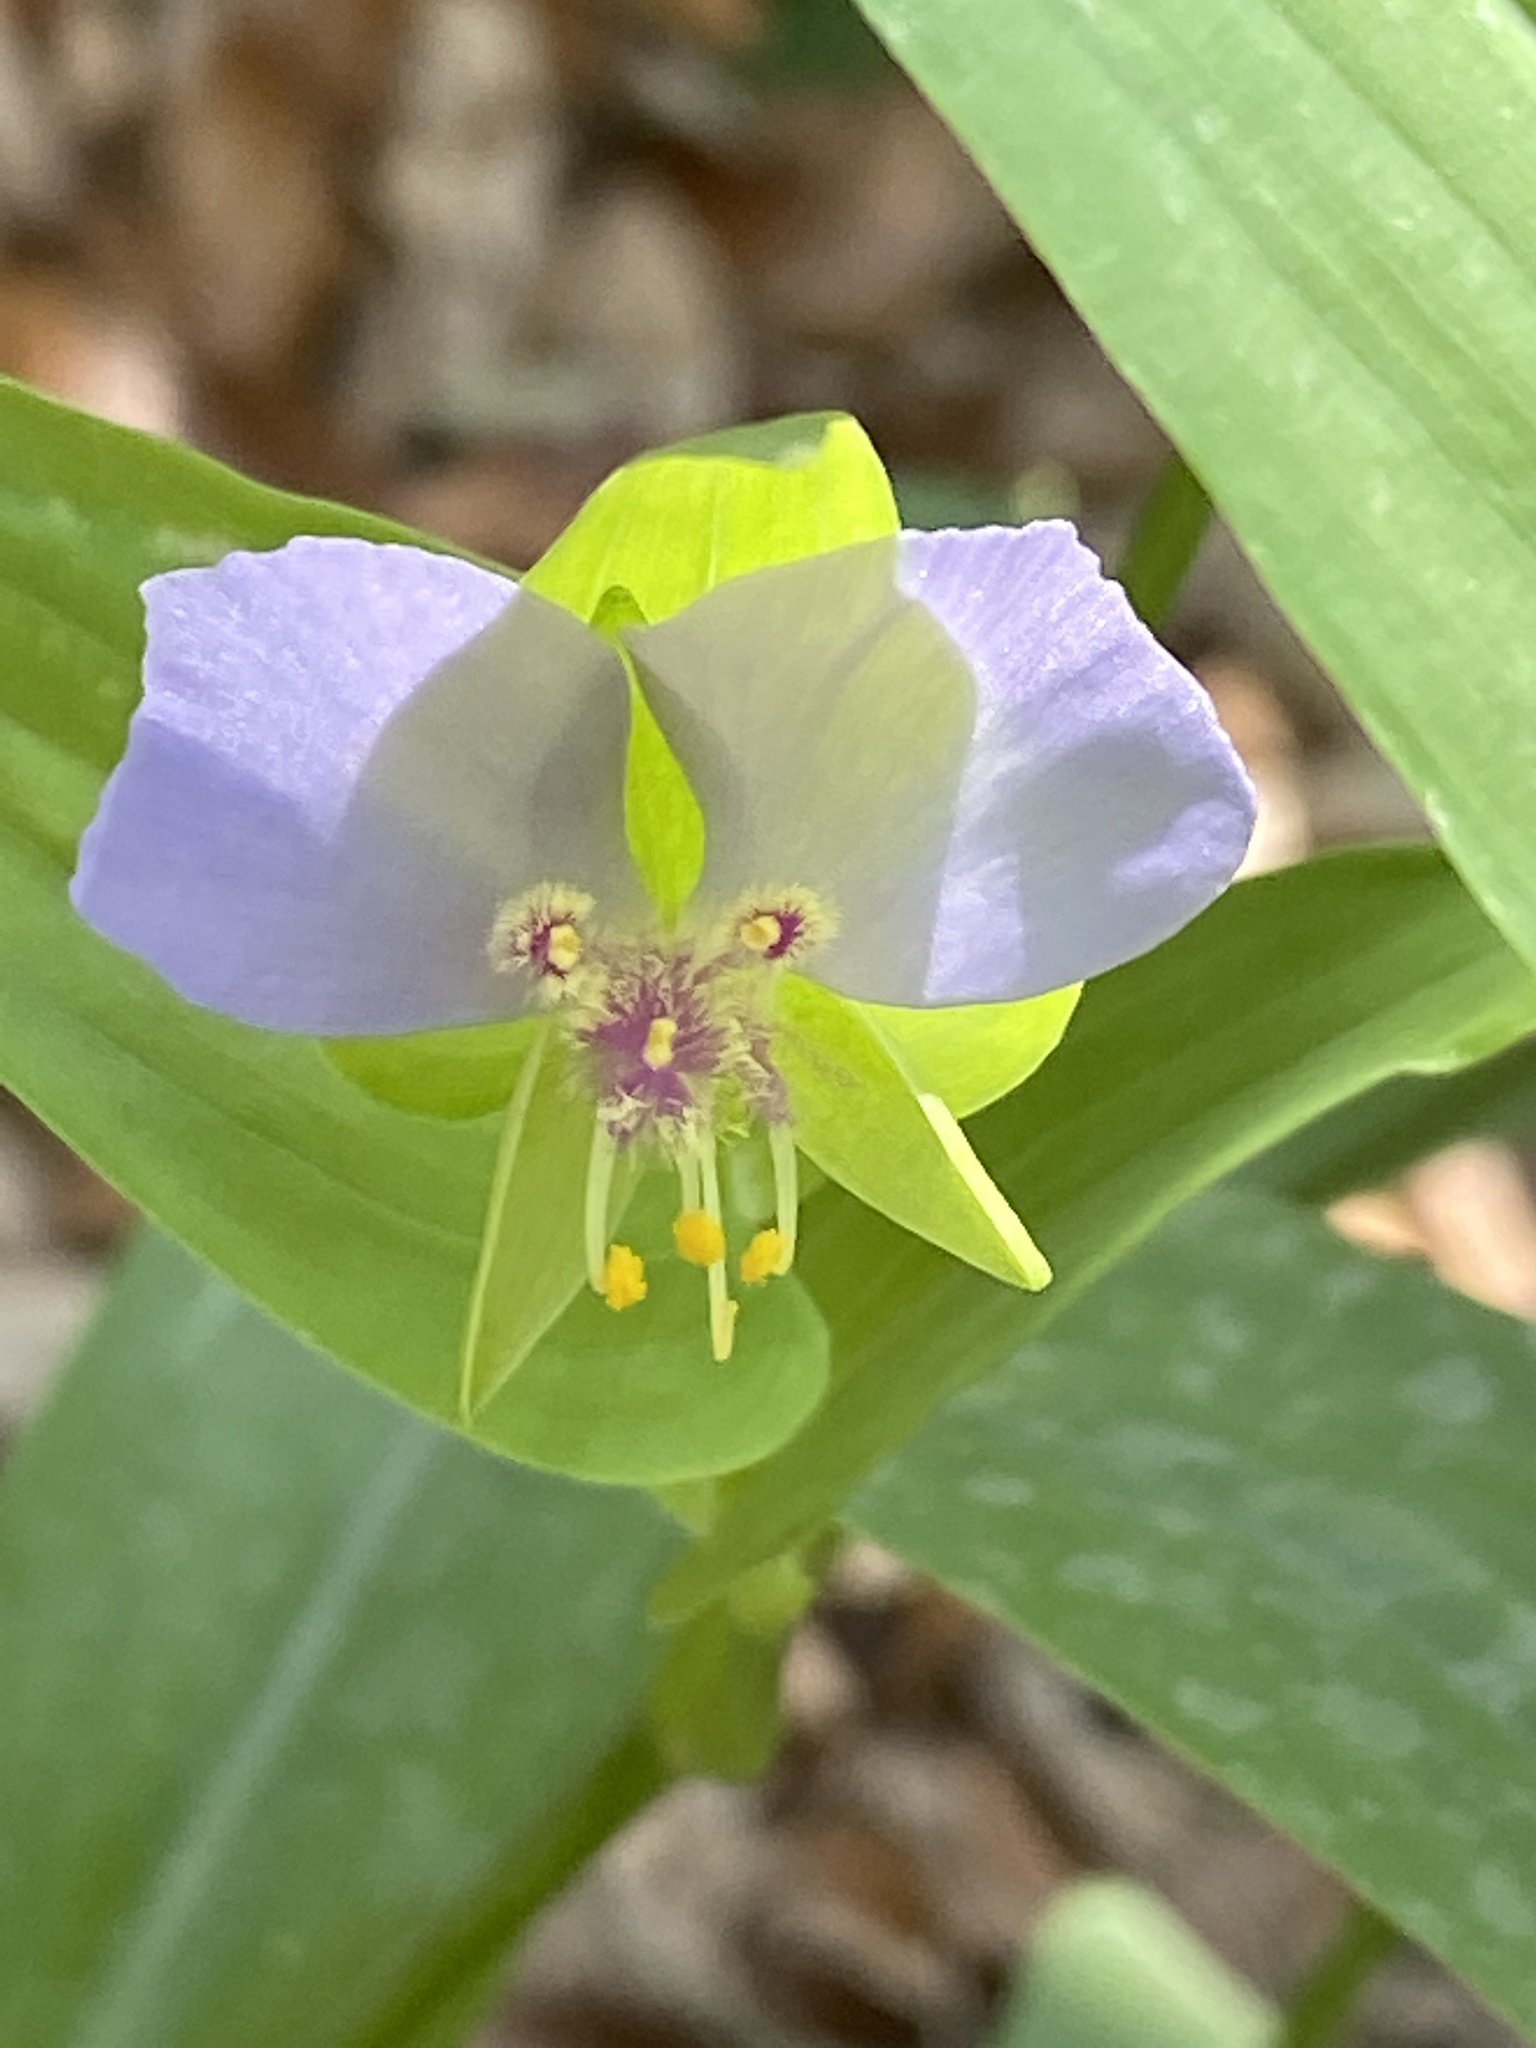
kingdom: Plantae
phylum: Tracheophyta
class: Liliopsida
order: Commelinales
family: Commelinaceae
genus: Tinantia
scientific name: Tinantia anomala
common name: False dayflower
